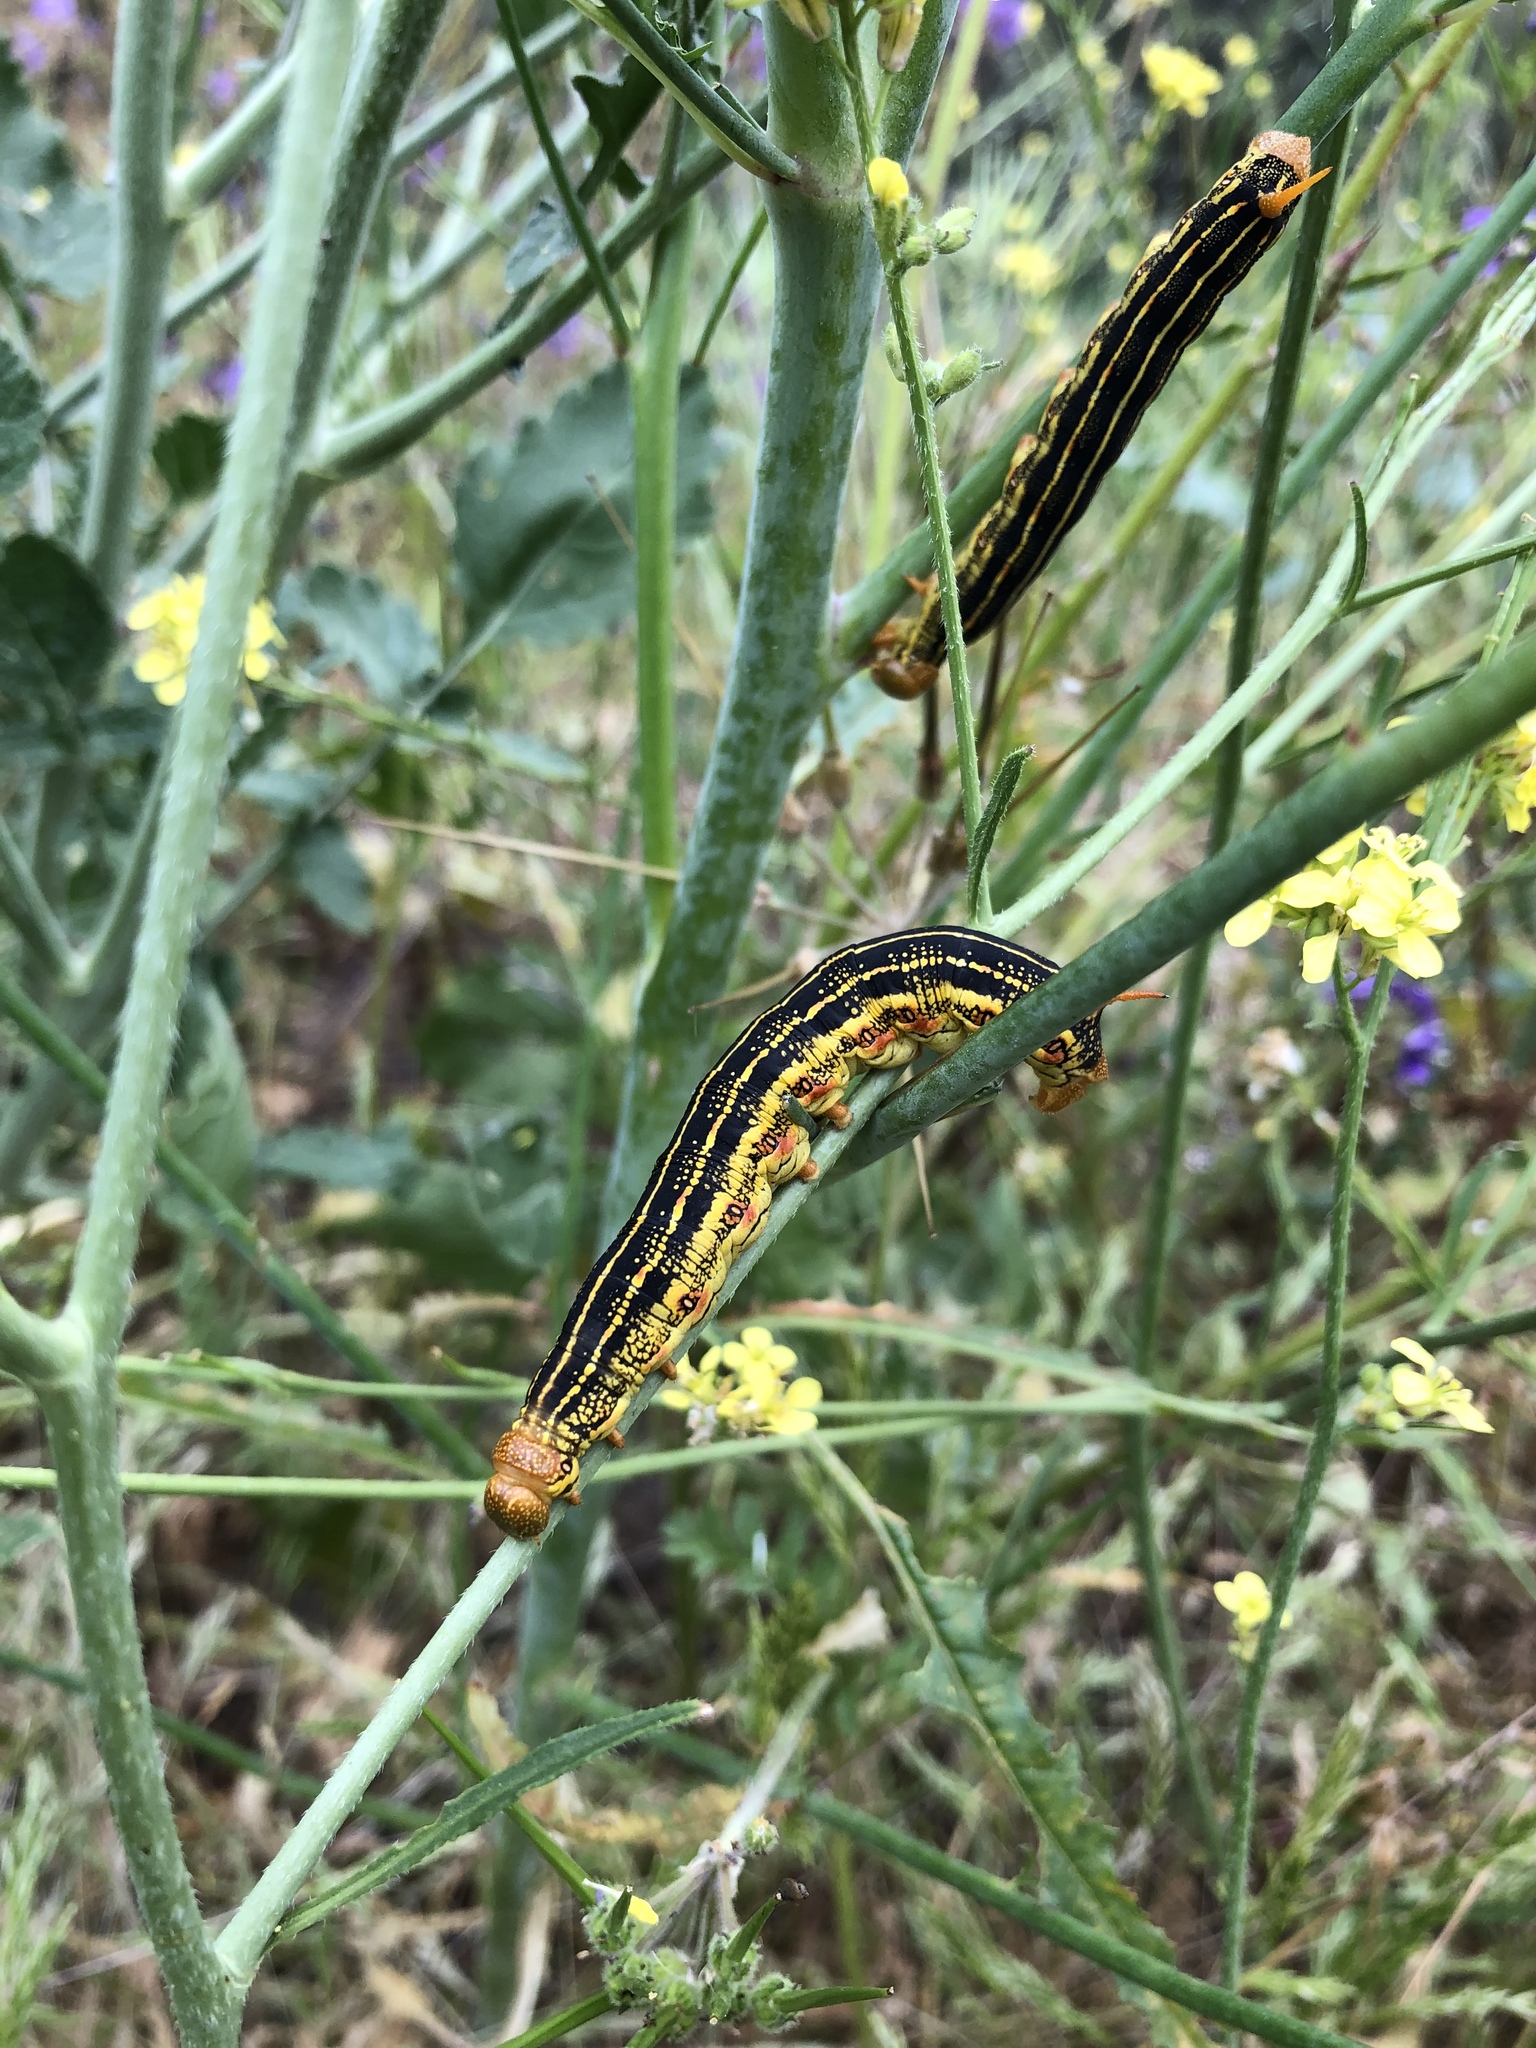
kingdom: Animalia
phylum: Arthropoda
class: Insecta
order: Lepidoptera
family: Sphingidae
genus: Hyles
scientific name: Hyles lineata
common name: White-lined sphinx
